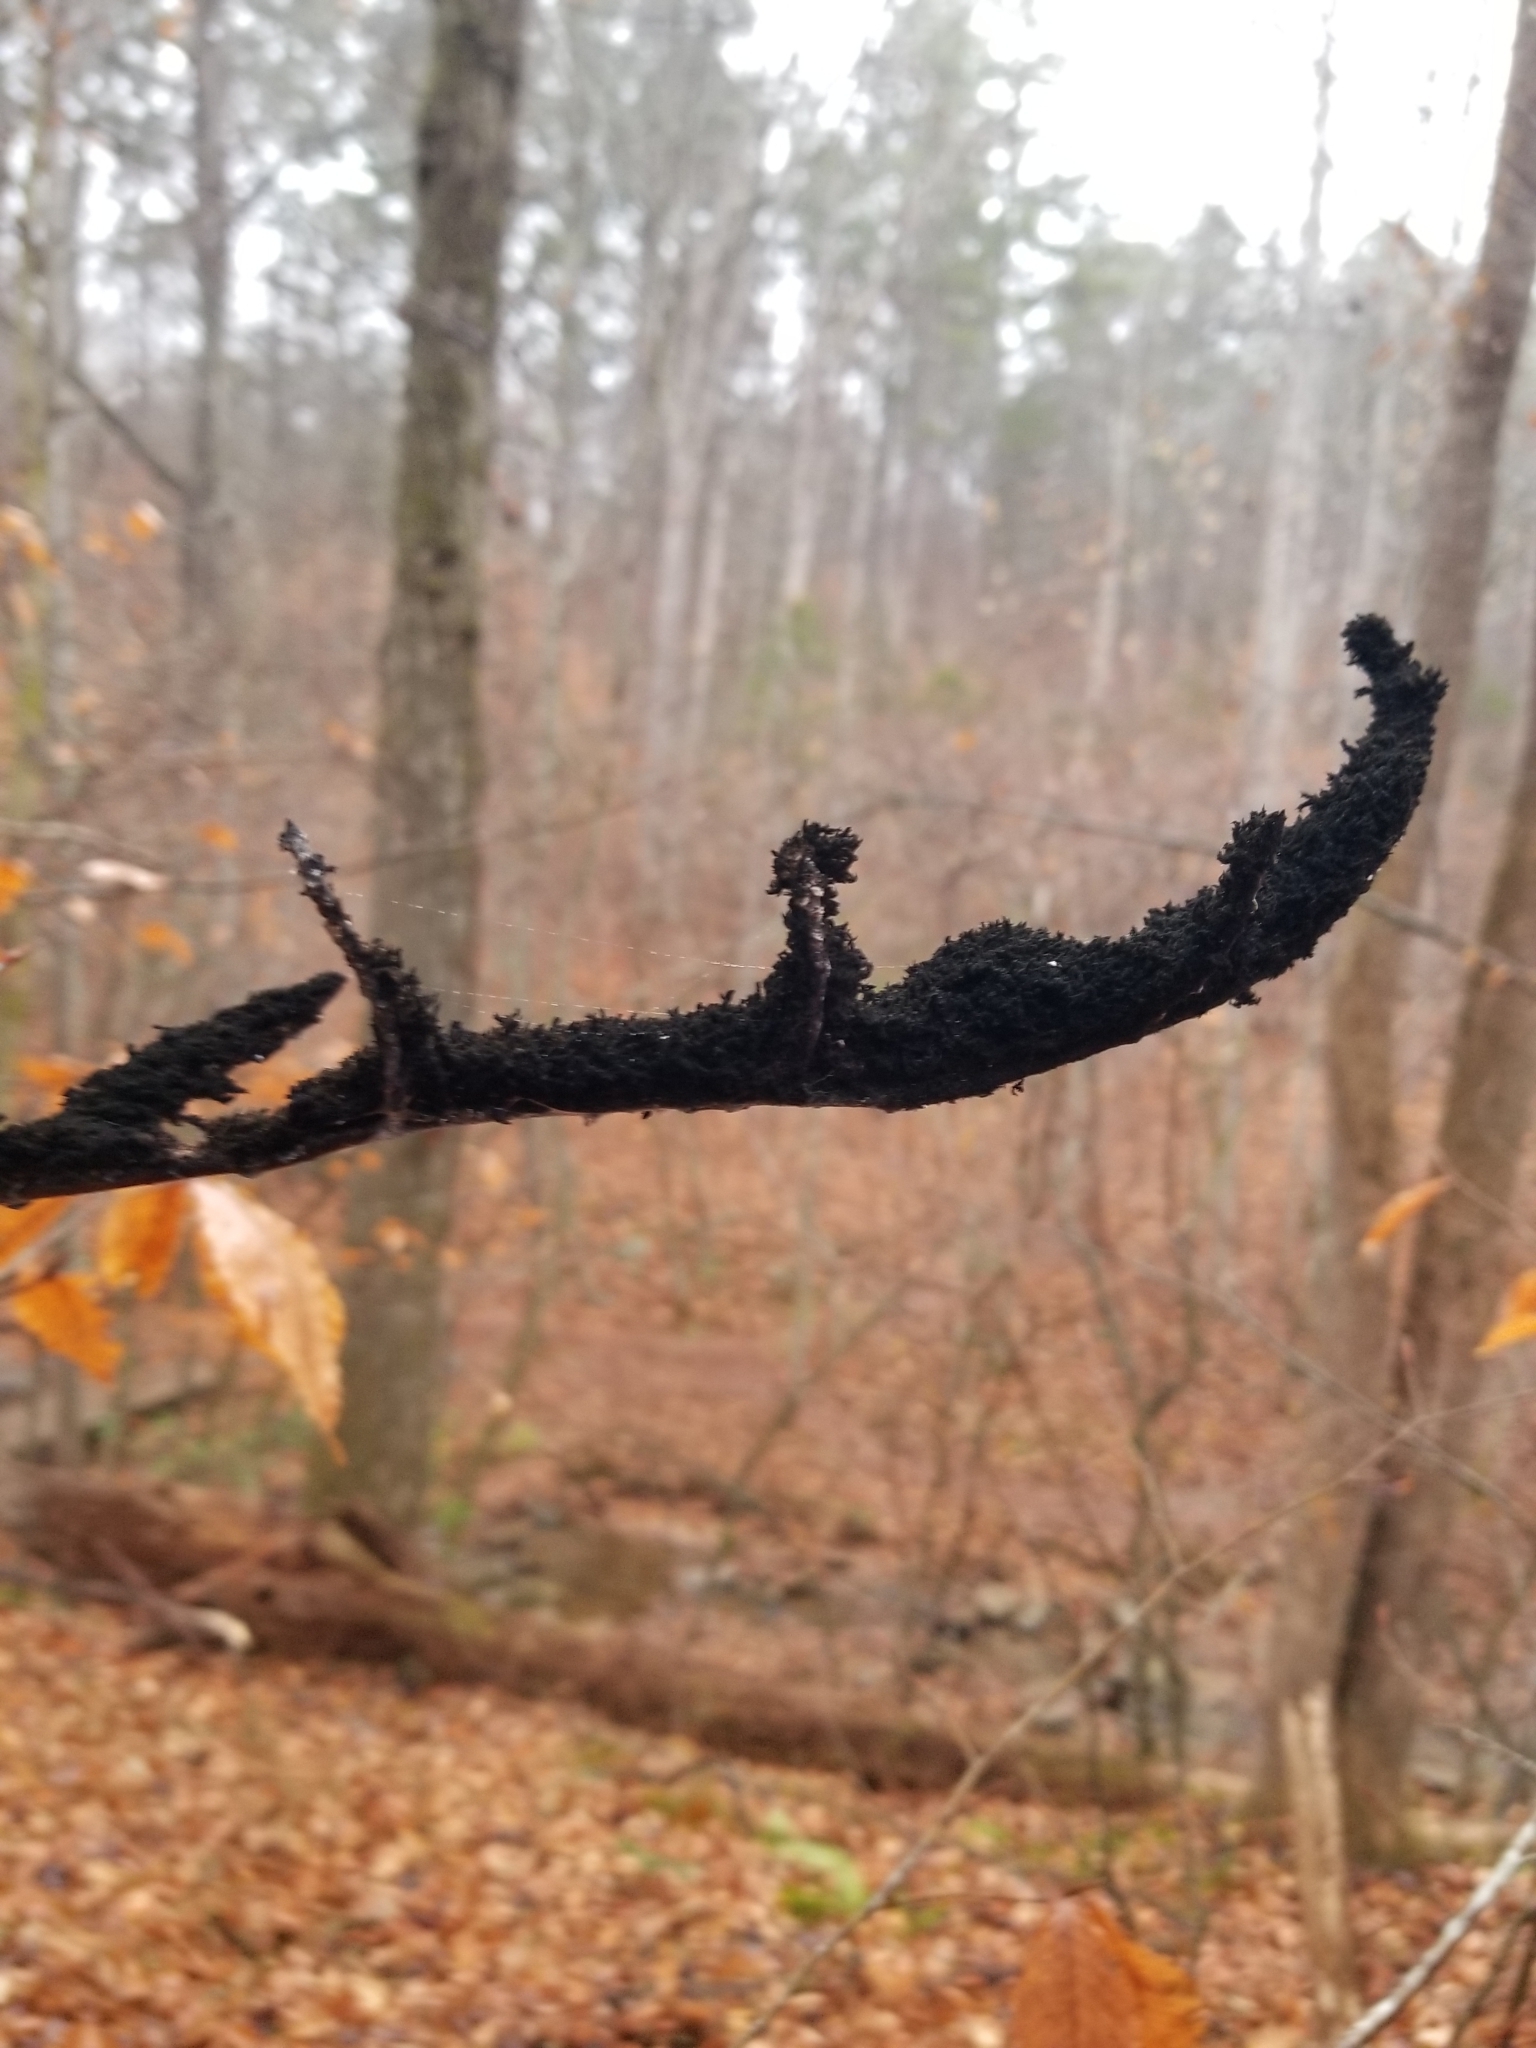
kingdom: Fungi
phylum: Ascomycota
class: Dothideomycetes
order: Capnodiales
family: Capnodiaceae
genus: Scorias
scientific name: Scorias spongiosa
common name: Black sooty mold
